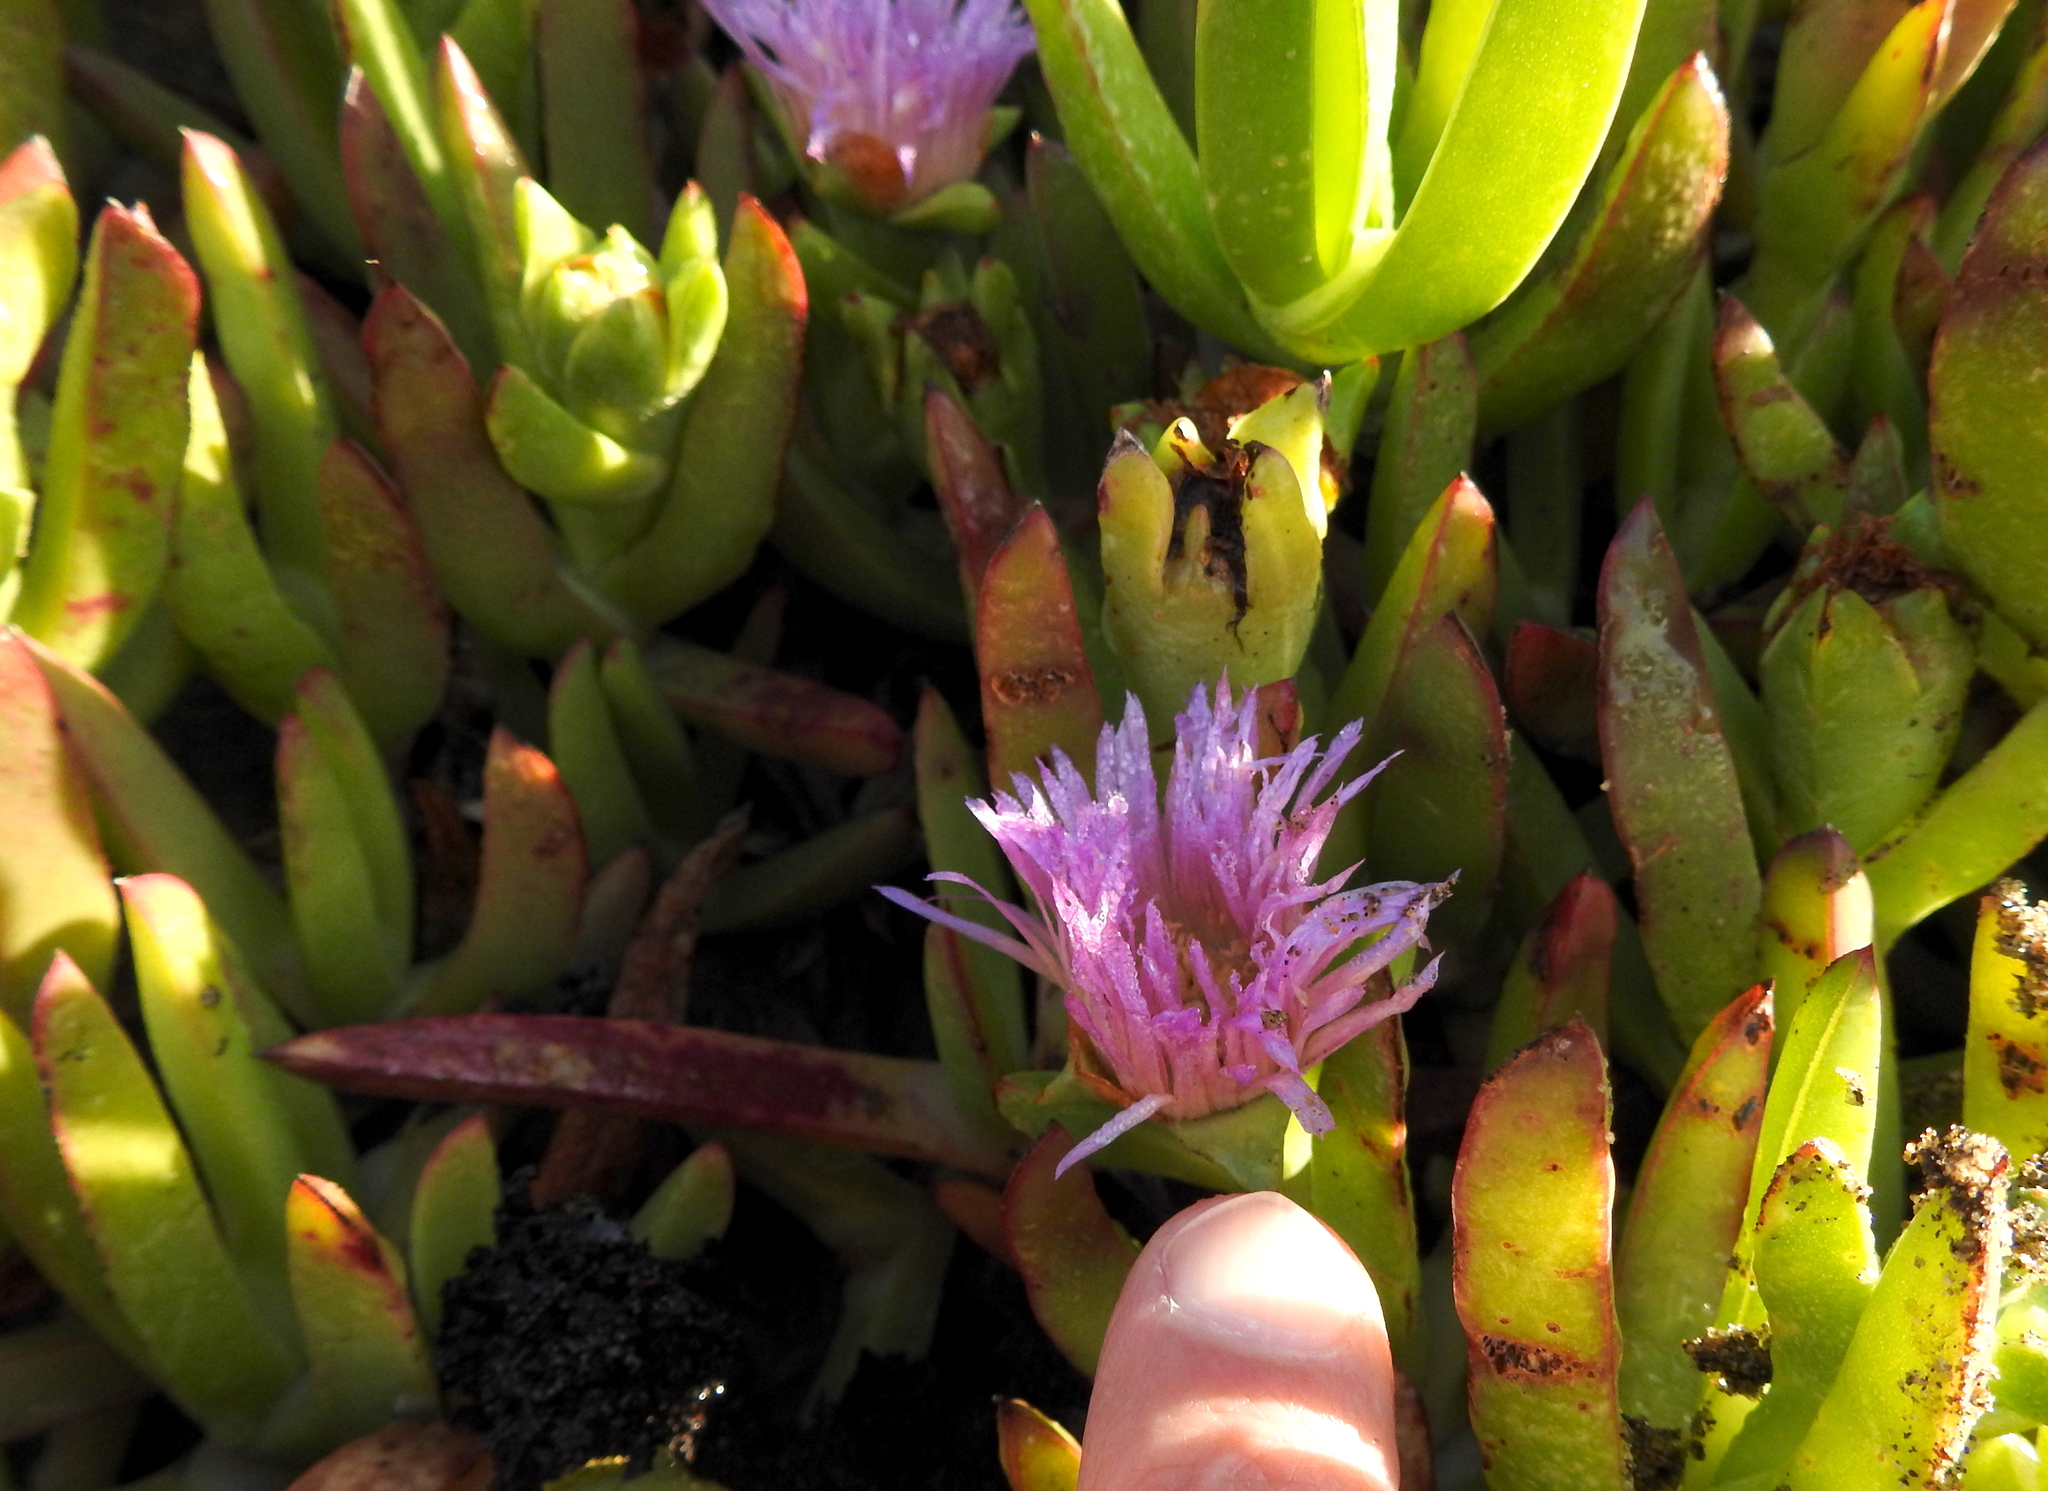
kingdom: Plantae
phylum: Tracheophyta
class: Magnoliopsida
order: Caryophyllales
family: Aizoaceae
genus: Carpobrotus
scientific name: Carpobrotus chilensis
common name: Sea fig
